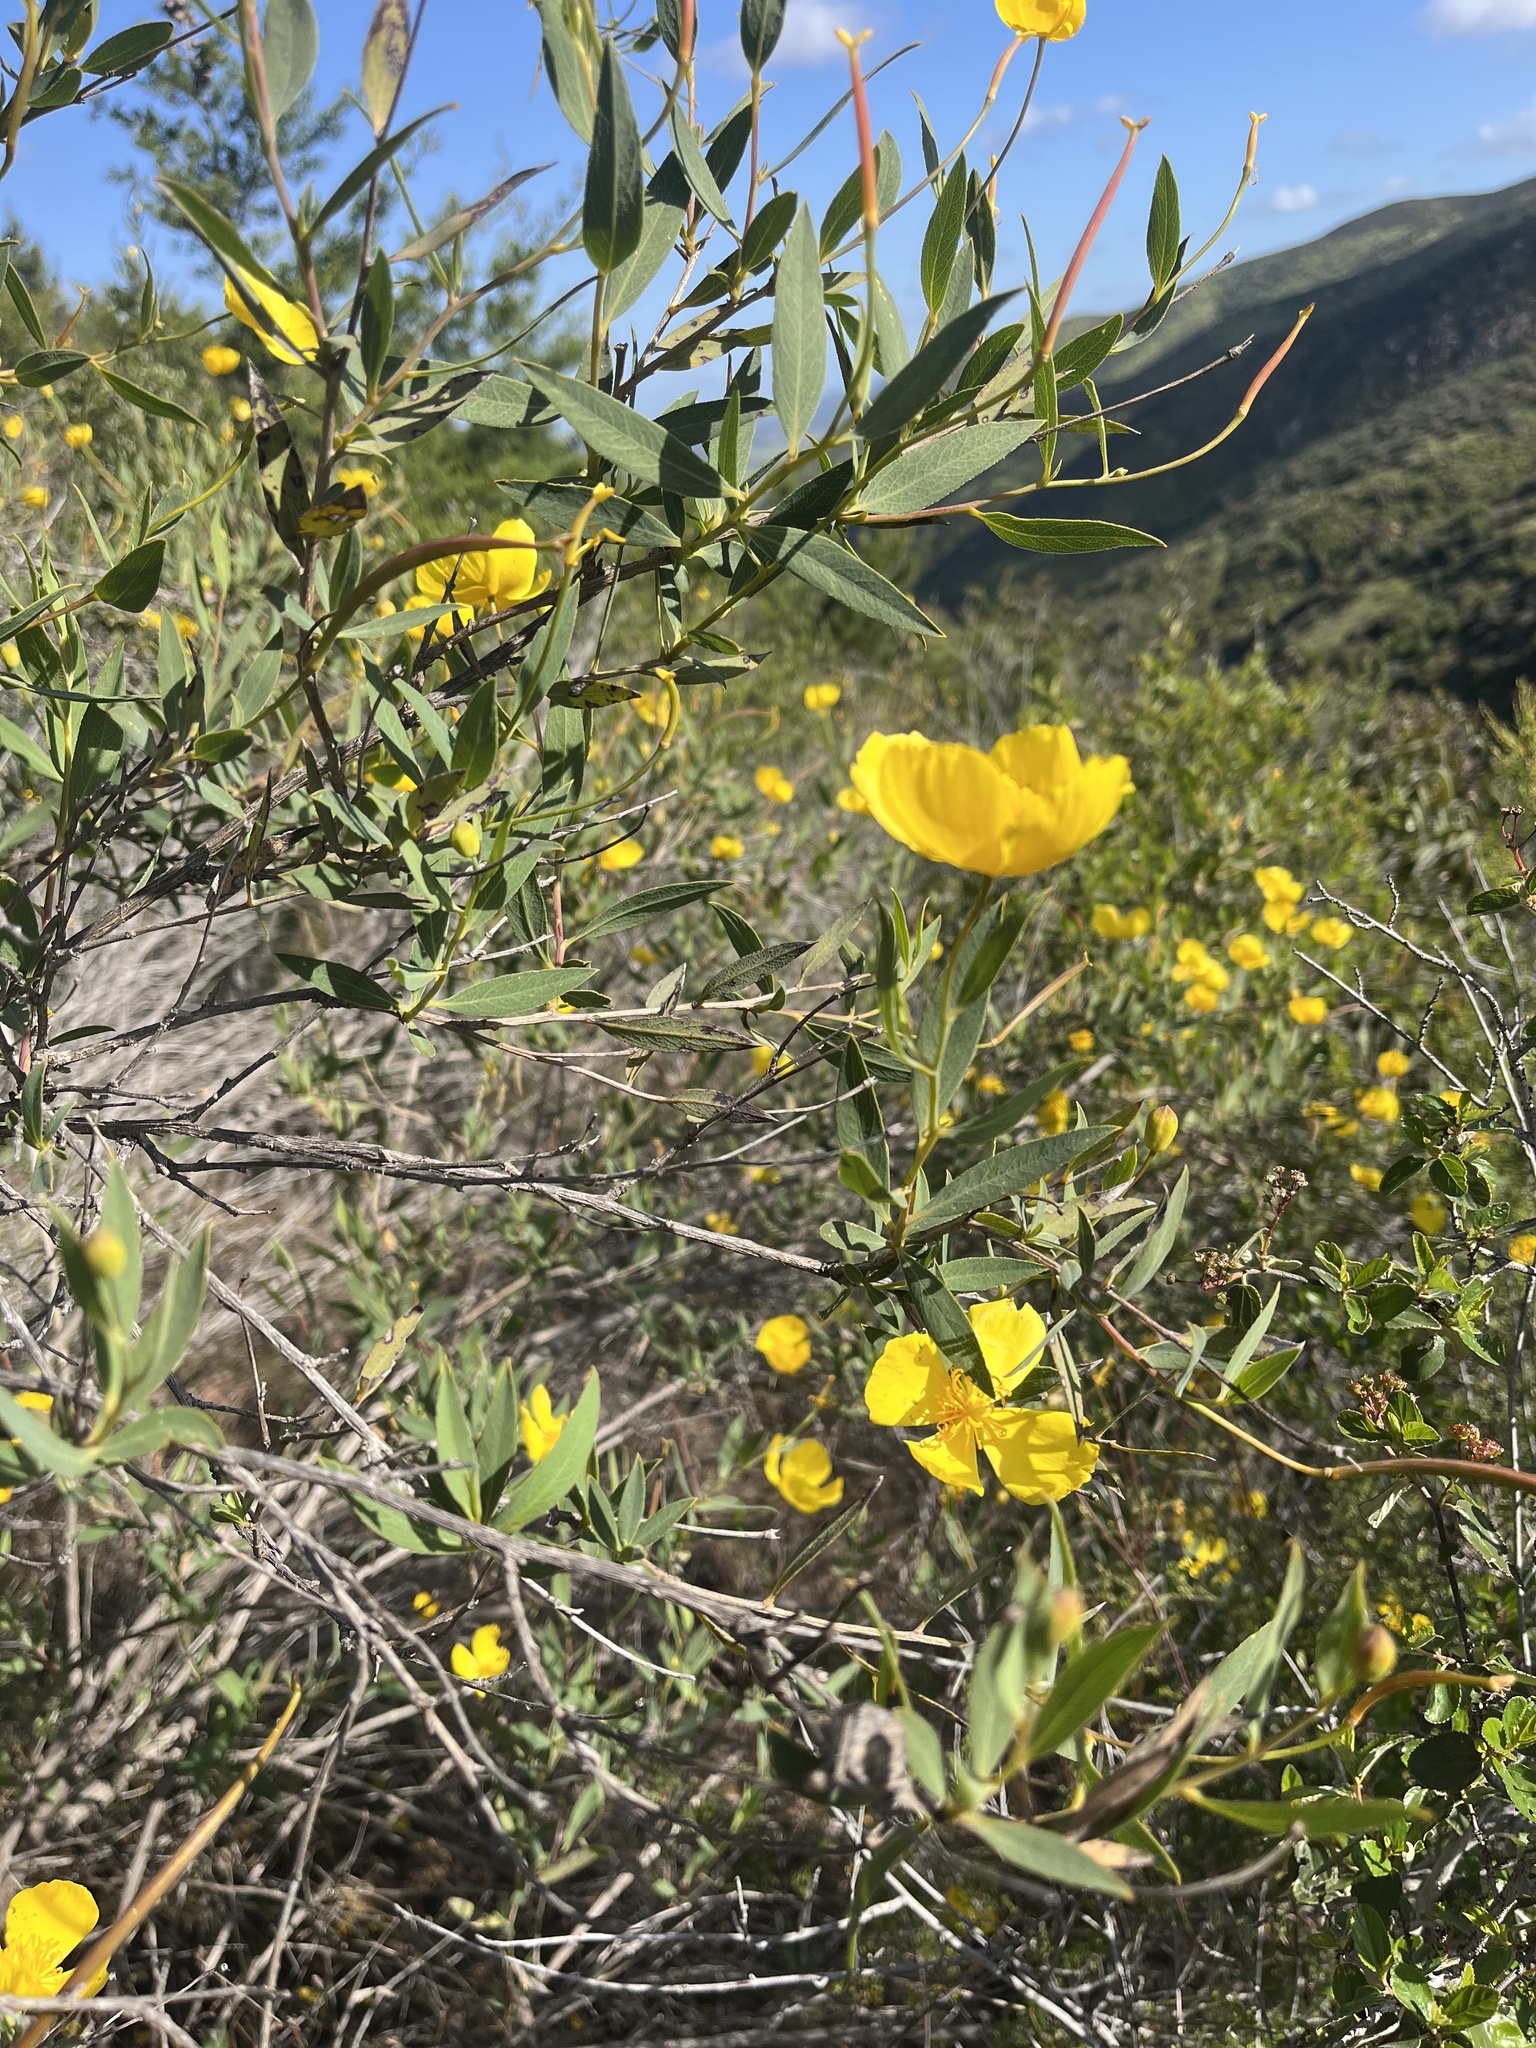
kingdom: Plantae
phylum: Tracheophyta
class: Magnoliopsida
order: Ranunculales
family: Papaveraceae
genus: Dendromecon
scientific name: Dendromecon rigida
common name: Tree poppy
